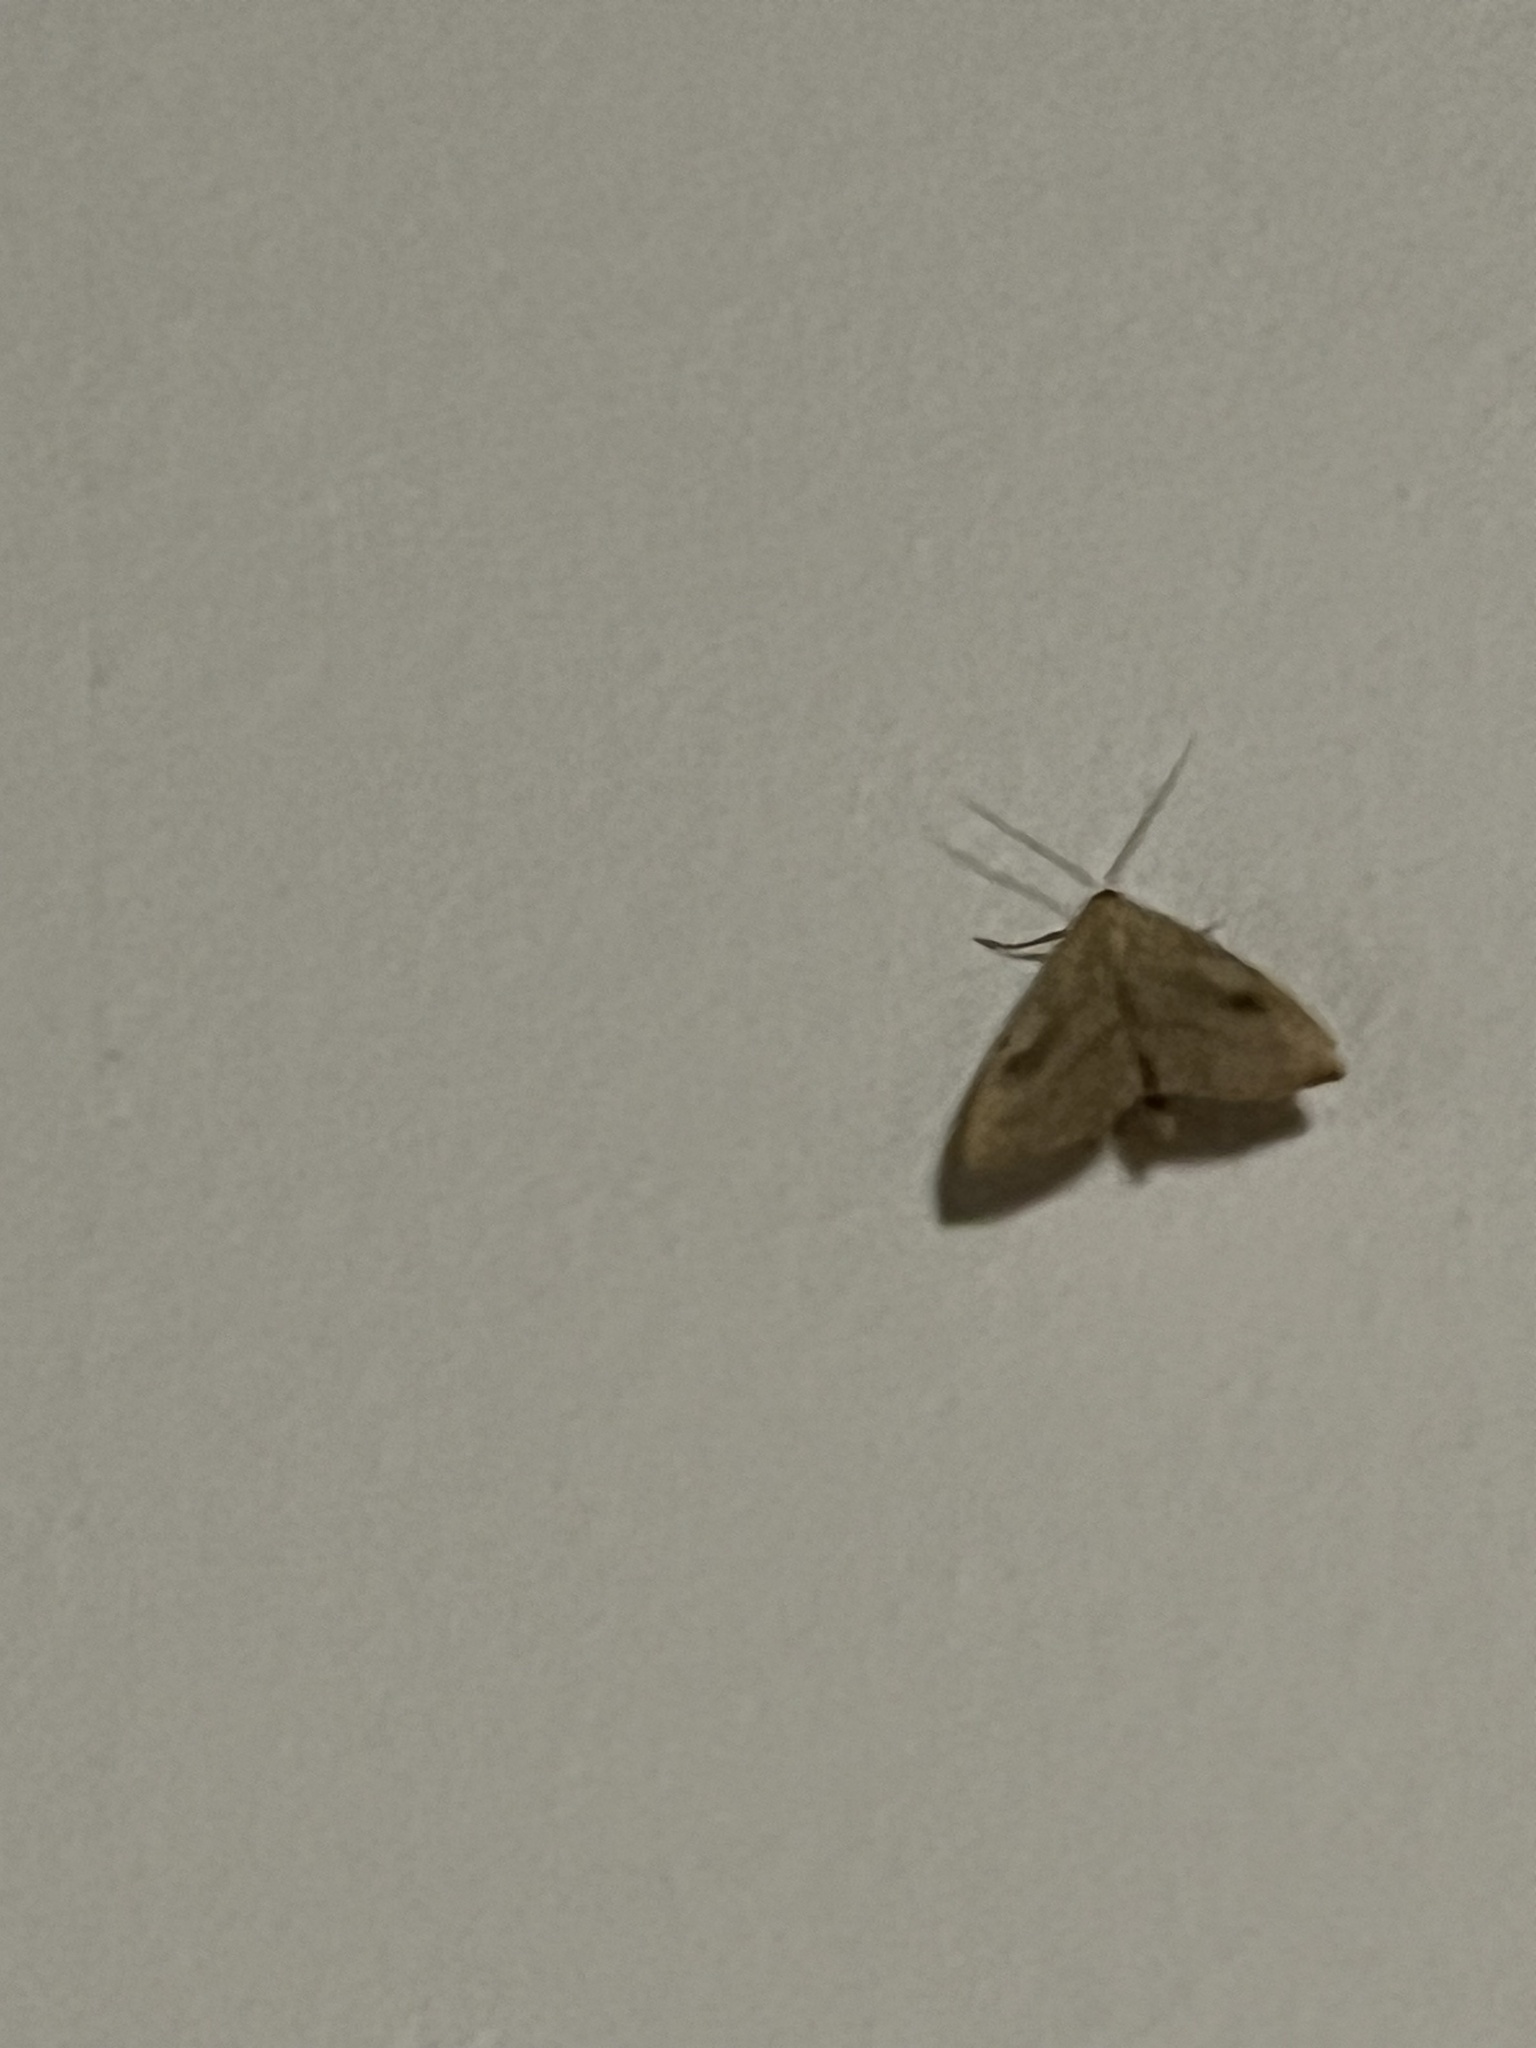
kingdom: Animalia
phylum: Arthropoda
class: Insecta
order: Lepidoptera
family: Erebidae
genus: Rivula
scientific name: Rivula sericealis
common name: Straw dot
